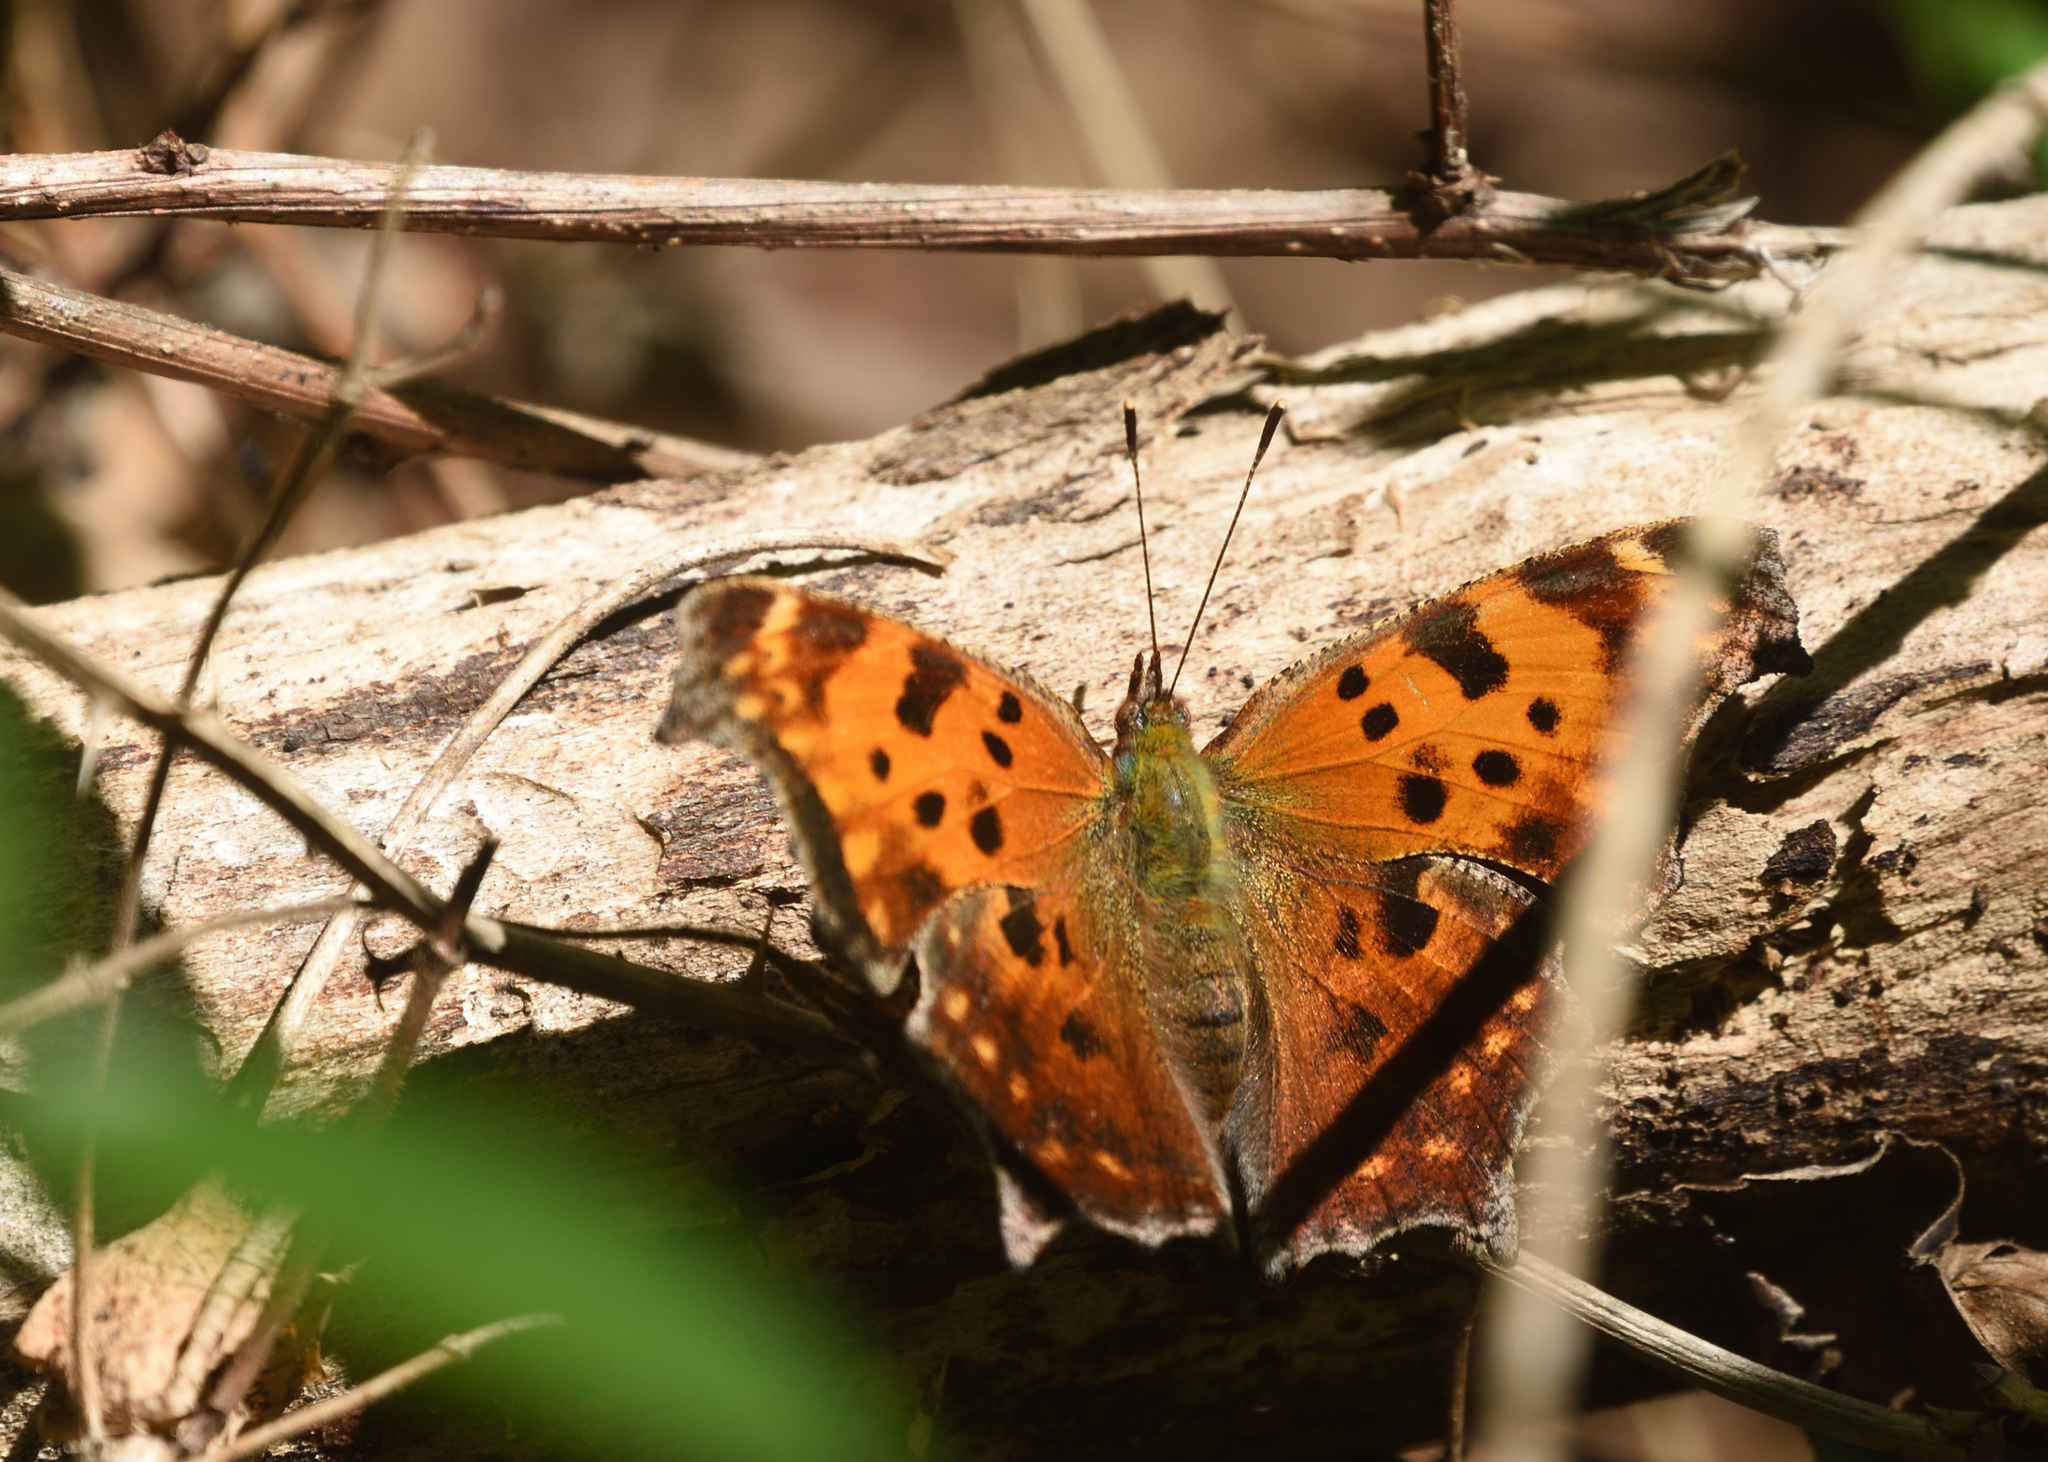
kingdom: Animalia
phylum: Arthropoda
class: Insecta
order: Lepidoptera
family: Nymphalidae
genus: Polygonia
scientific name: Polygonia comma
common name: Eastern comma
